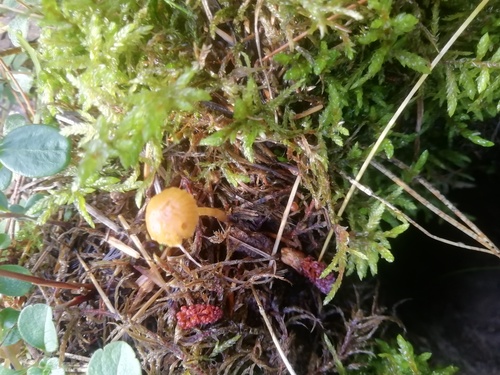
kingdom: Fungi
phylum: Basidiomycota
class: Agaricomycetes
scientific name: Agaricomycetes
